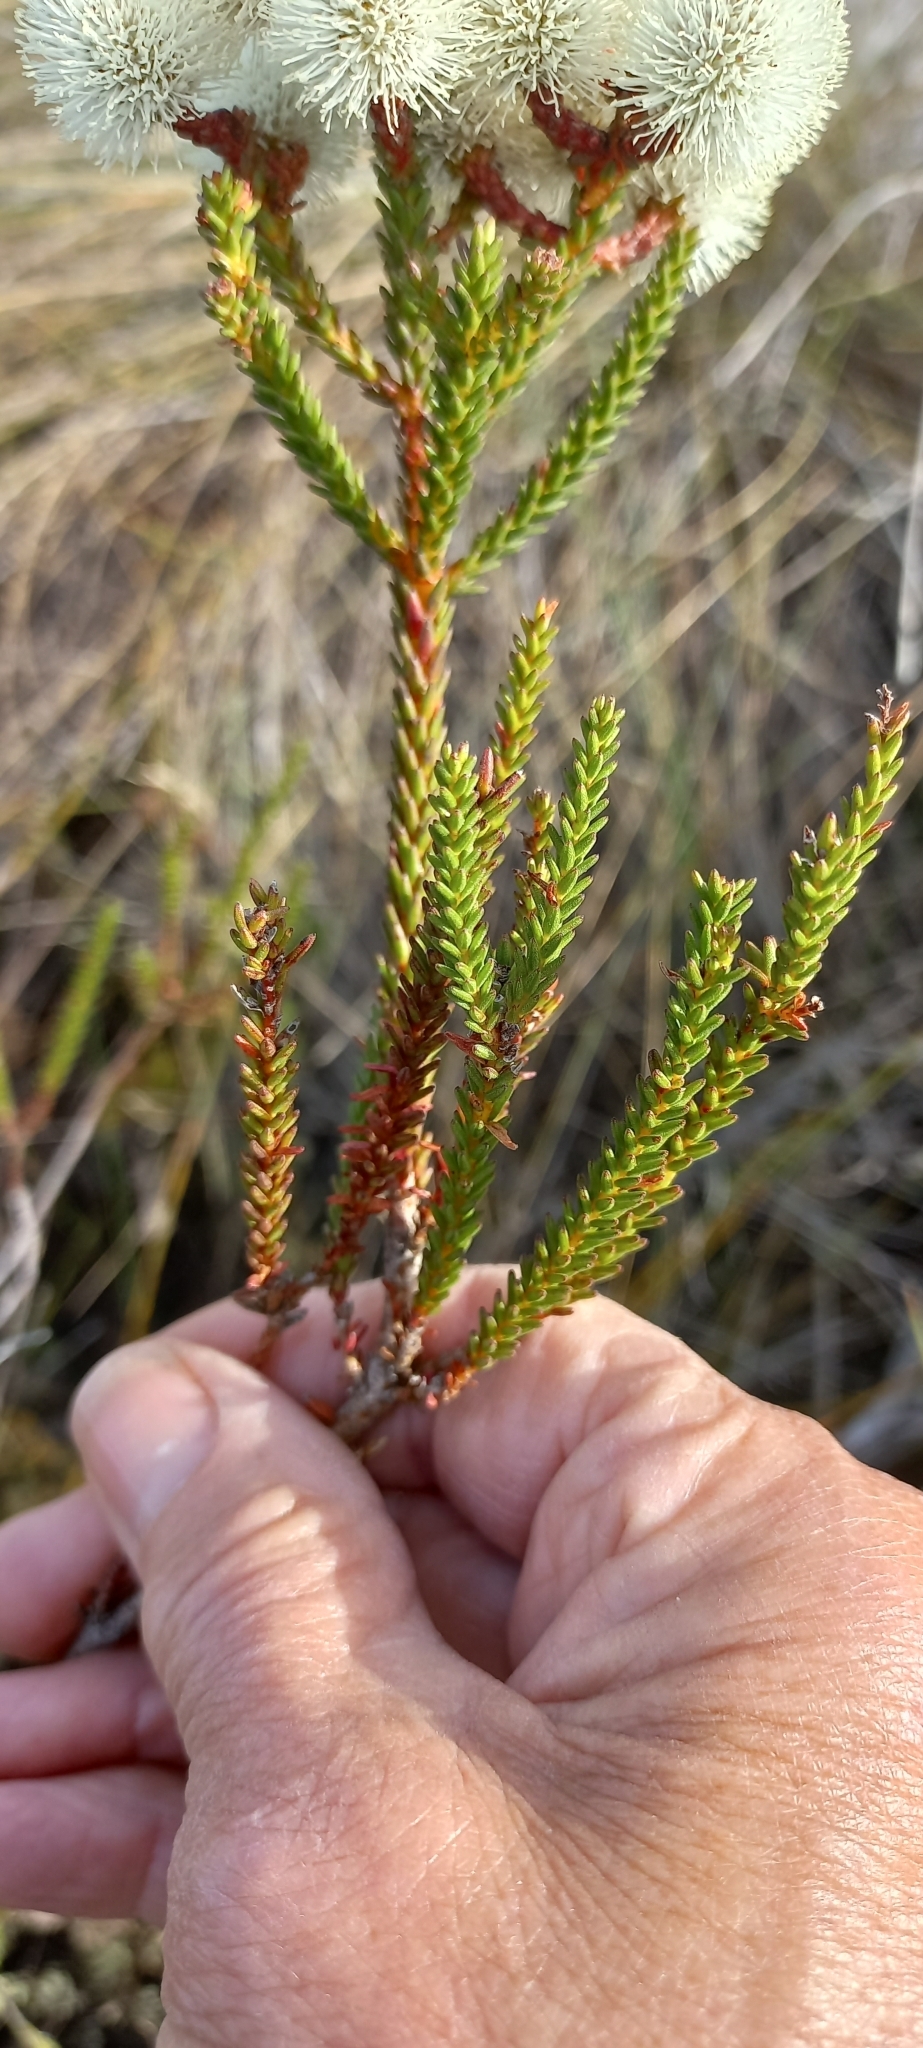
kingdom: Plantae
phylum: Tracheophyta
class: Magnoliopsida
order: Bruniales
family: Bruniaceae
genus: Berzelia
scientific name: Berzelia abrotanoides
